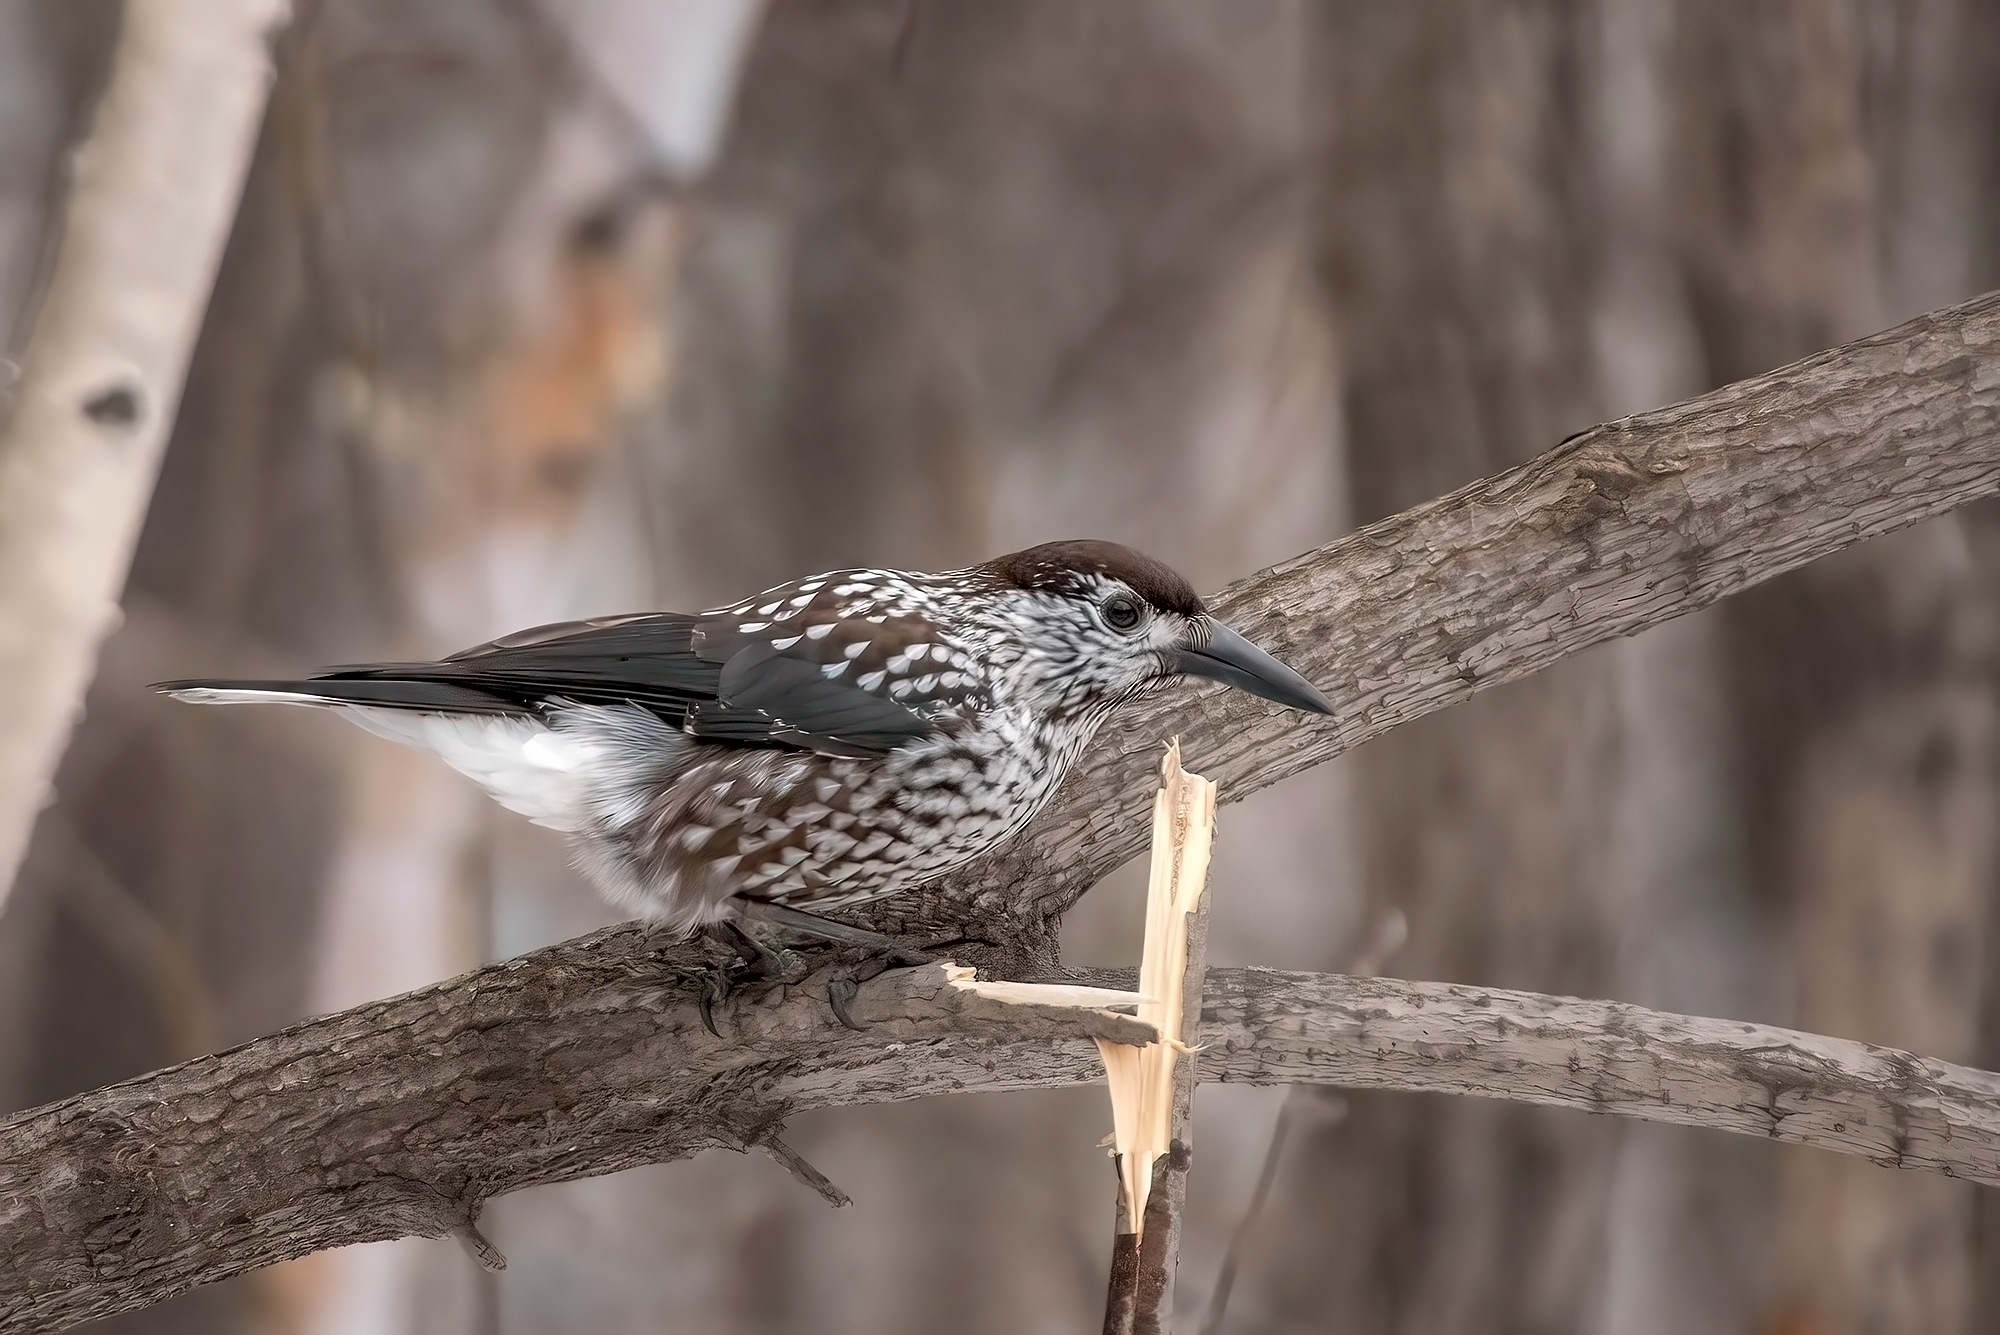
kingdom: Animalia
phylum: Chordata
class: Aves
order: Passeriformes
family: Corvidae
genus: Nucifraga
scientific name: Nucifraga caryocatactes
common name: Spotted nutcracker
